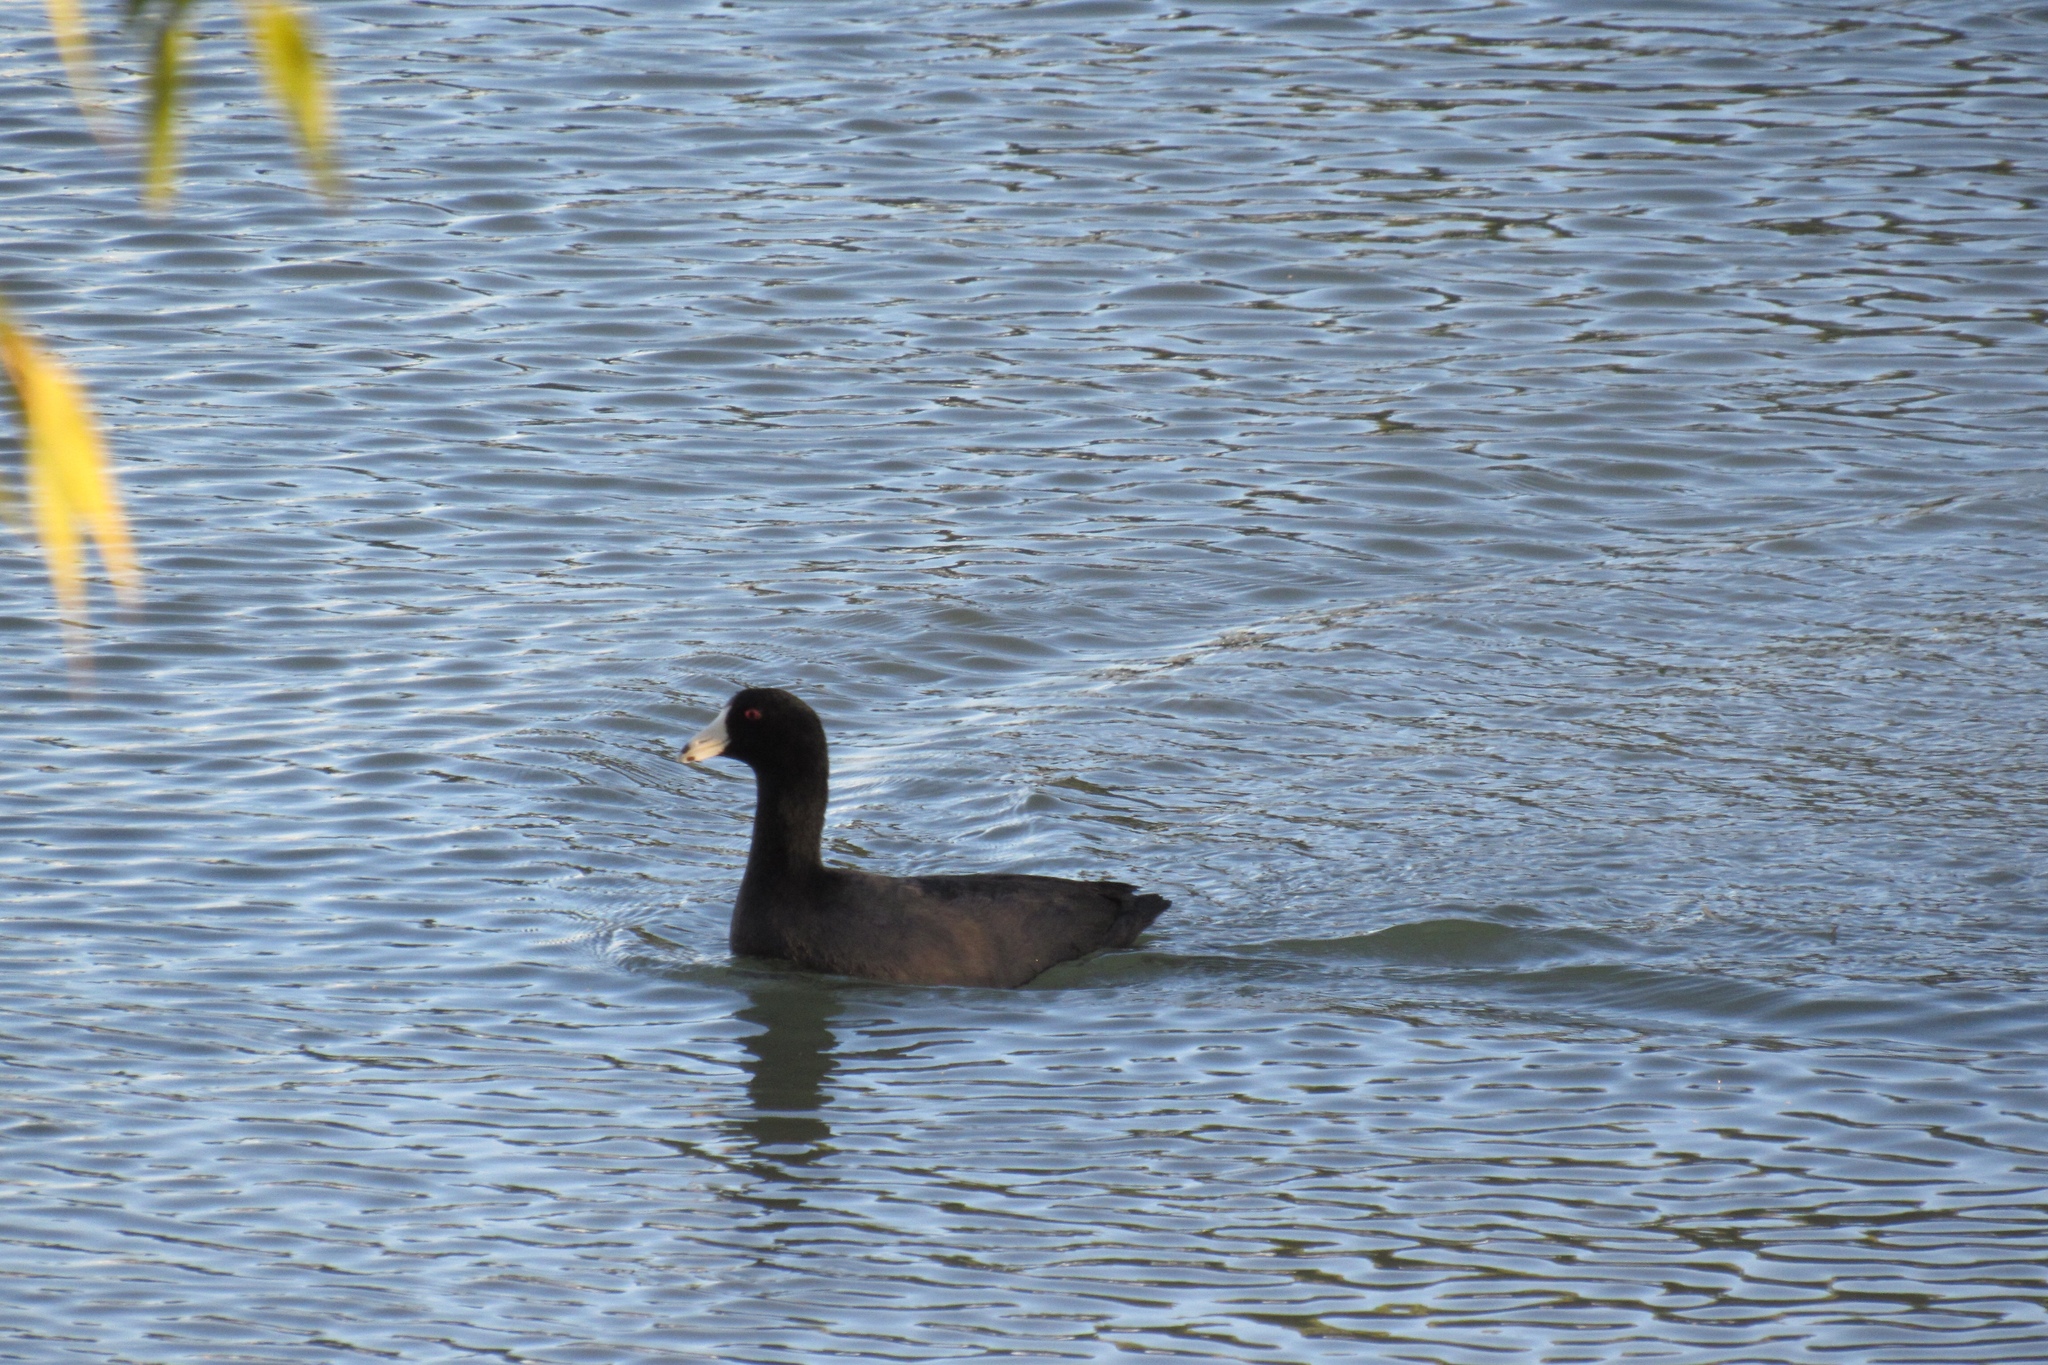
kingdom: Animalia
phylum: Chordata
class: Aves
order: Gruiformes
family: Rallidae
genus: Fulica
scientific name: Fulica americana
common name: American coot
